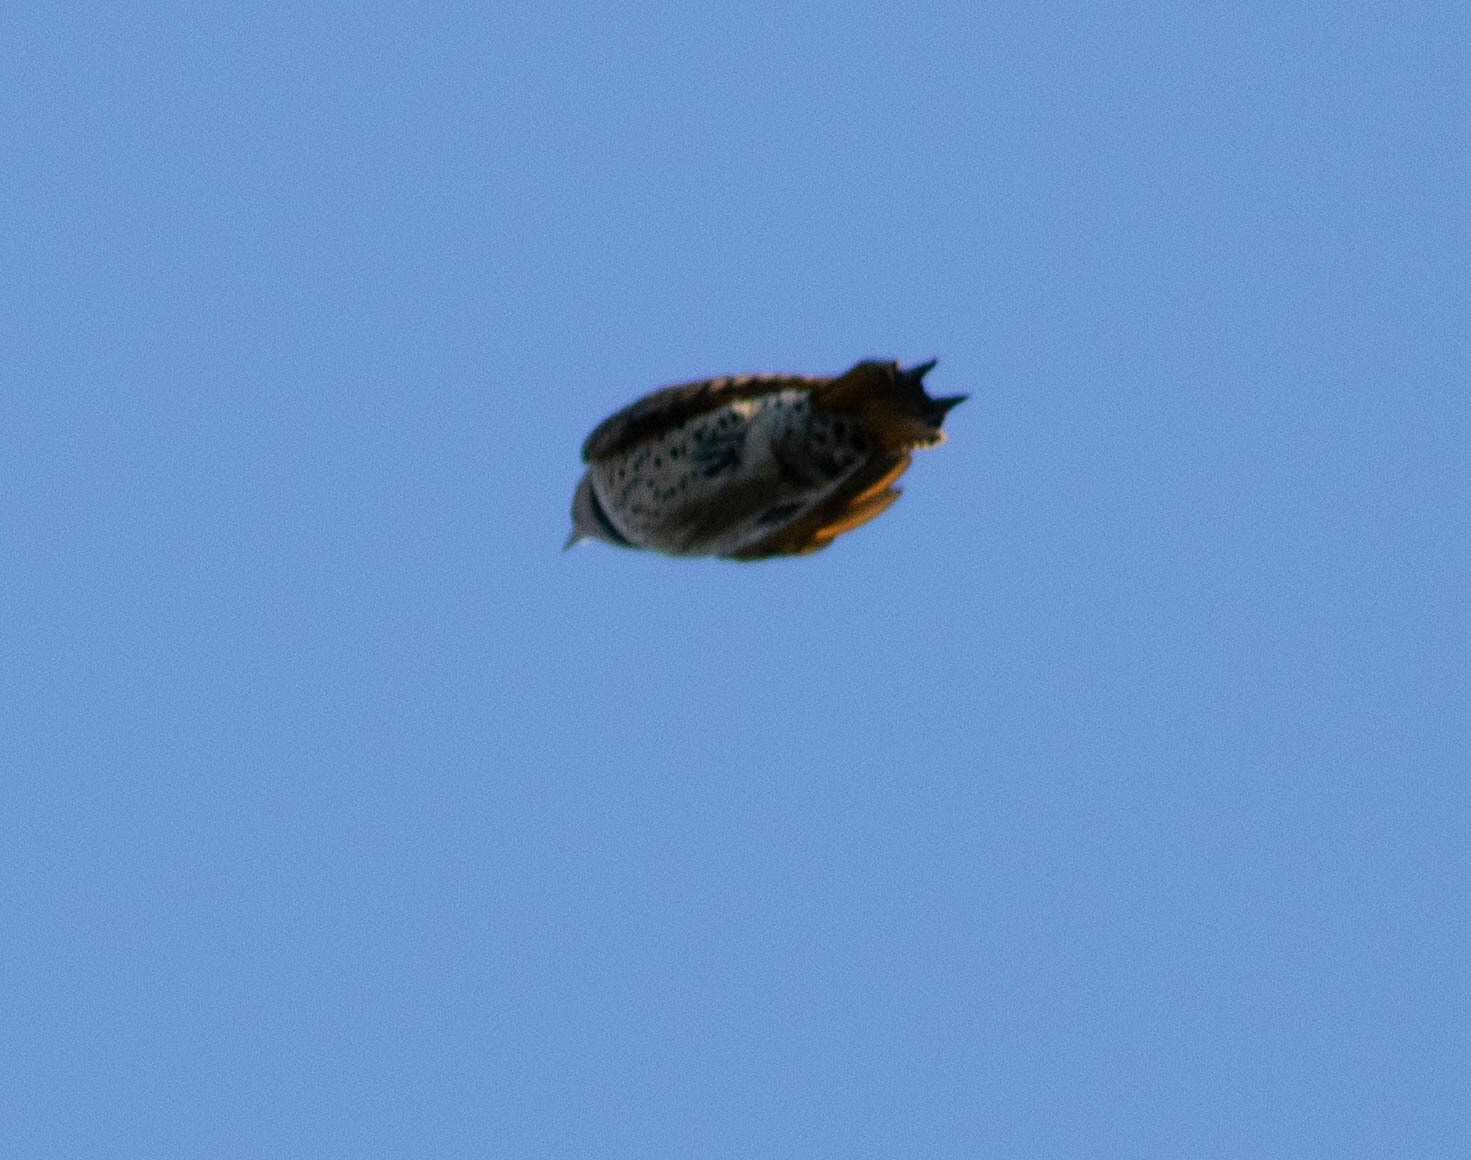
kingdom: Animalia
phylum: Chordata
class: Aves
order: Piciformes
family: Picidae
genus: Colaptes
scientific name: Colaptes auratus
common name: Northern flicker
